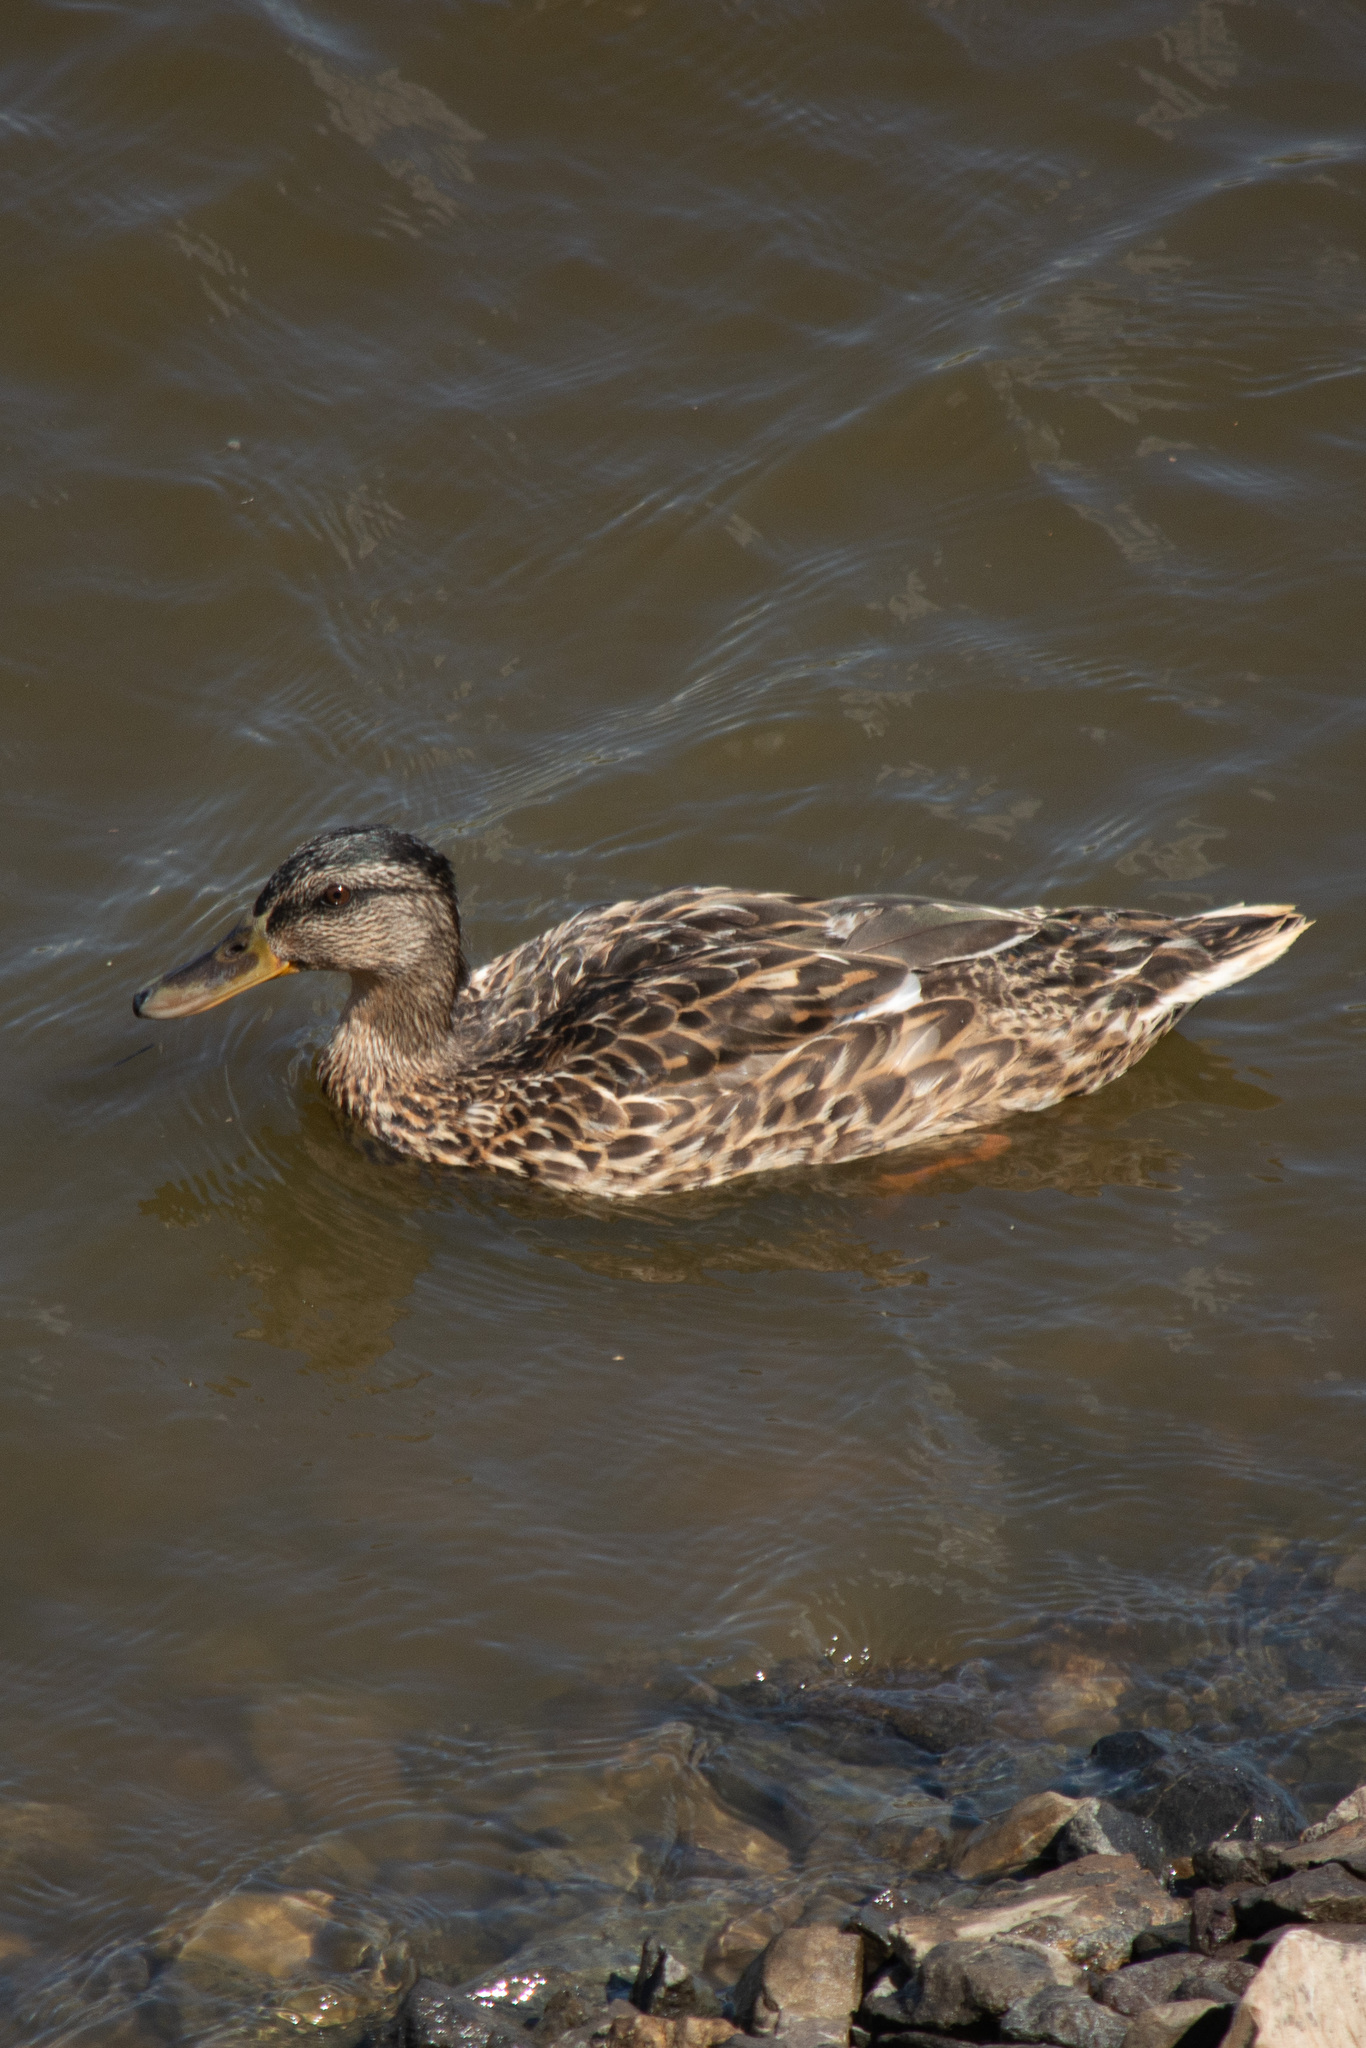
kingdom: Animalia
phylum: Chordata
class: Aves
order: Anseriformes
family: Anatidae
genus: Anas
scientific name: Anas platyrhynchos
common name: Mallard
